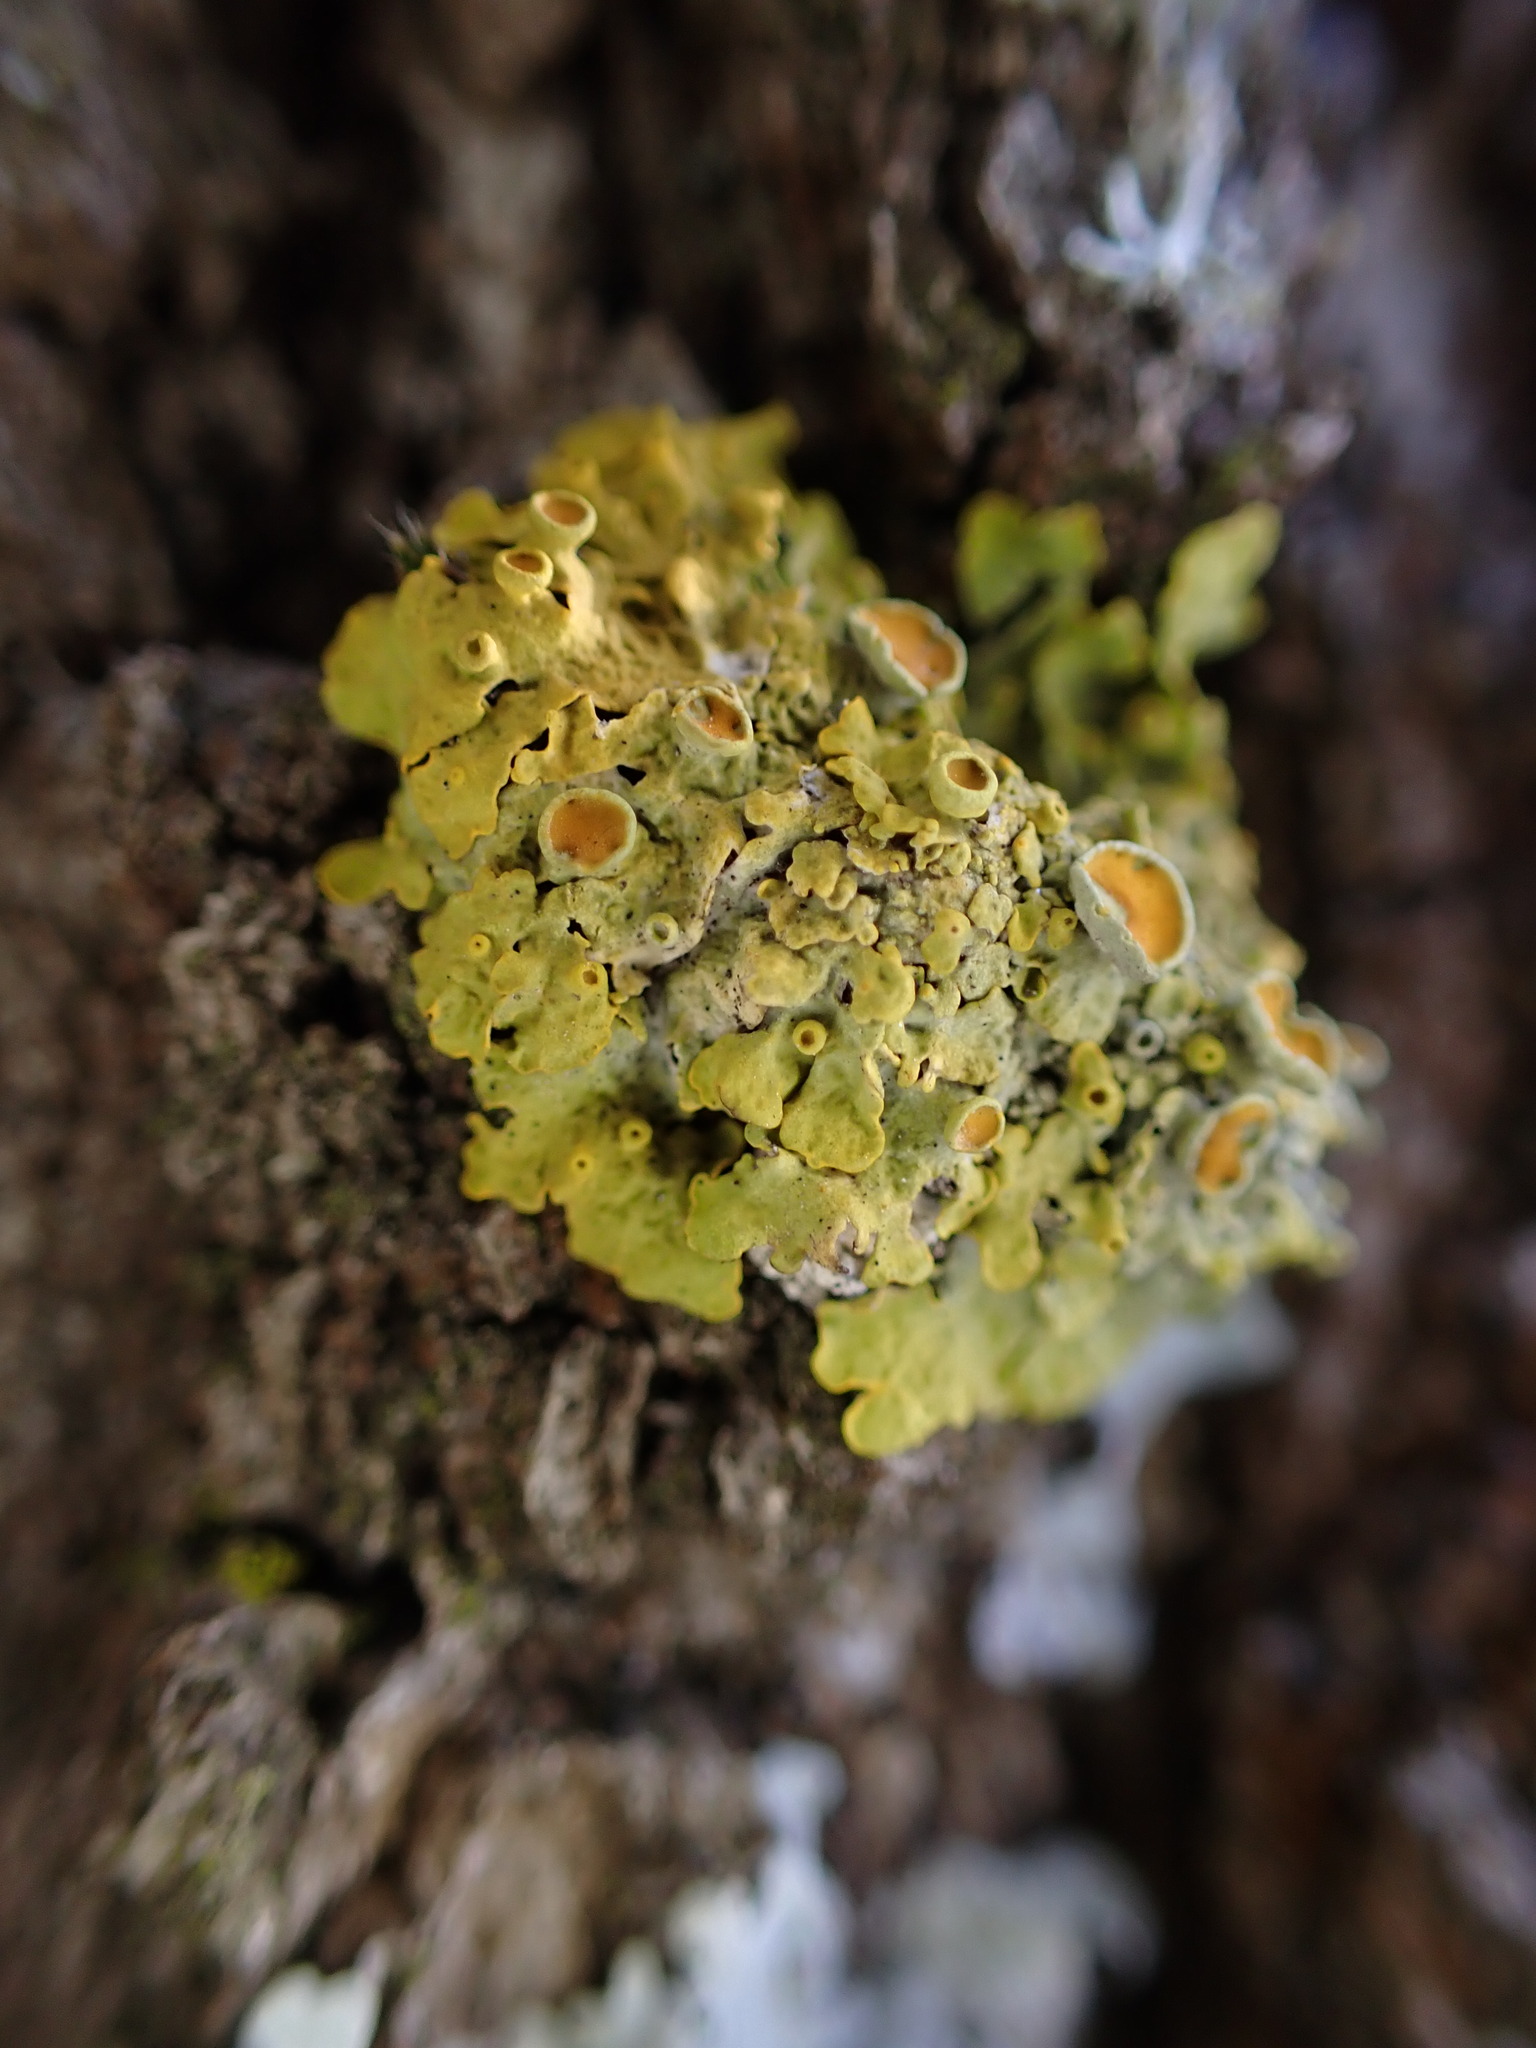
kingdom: Fungi
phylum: Ascomycota
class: Lecanoromycetes
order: Teloschistales
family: Teloschistaceae
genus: Xanthoria
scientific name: Xanthoria parietina
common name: Common orange lichen
